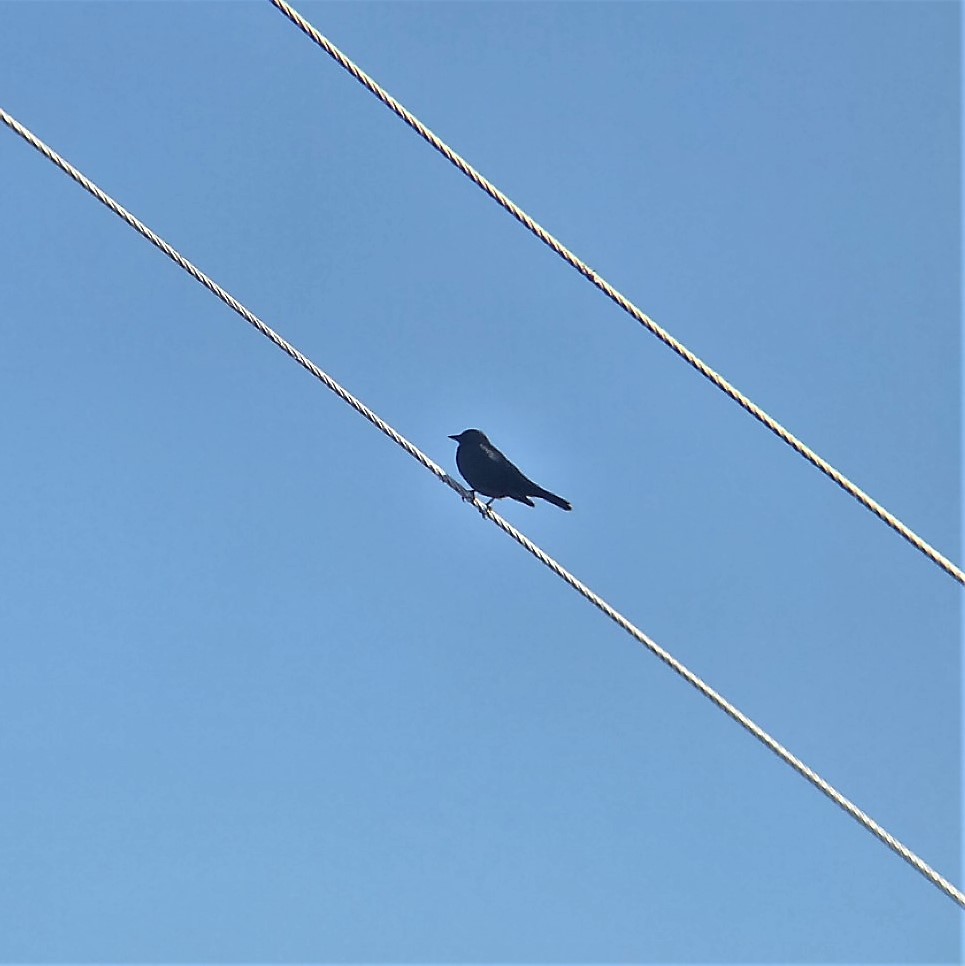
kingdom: Animalia
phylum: Chordata
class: Aves
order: Passeriformes
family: Icteridae
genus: Euphagus
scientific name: Euphagus cyanocephalus
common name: Brewer's blackbird
